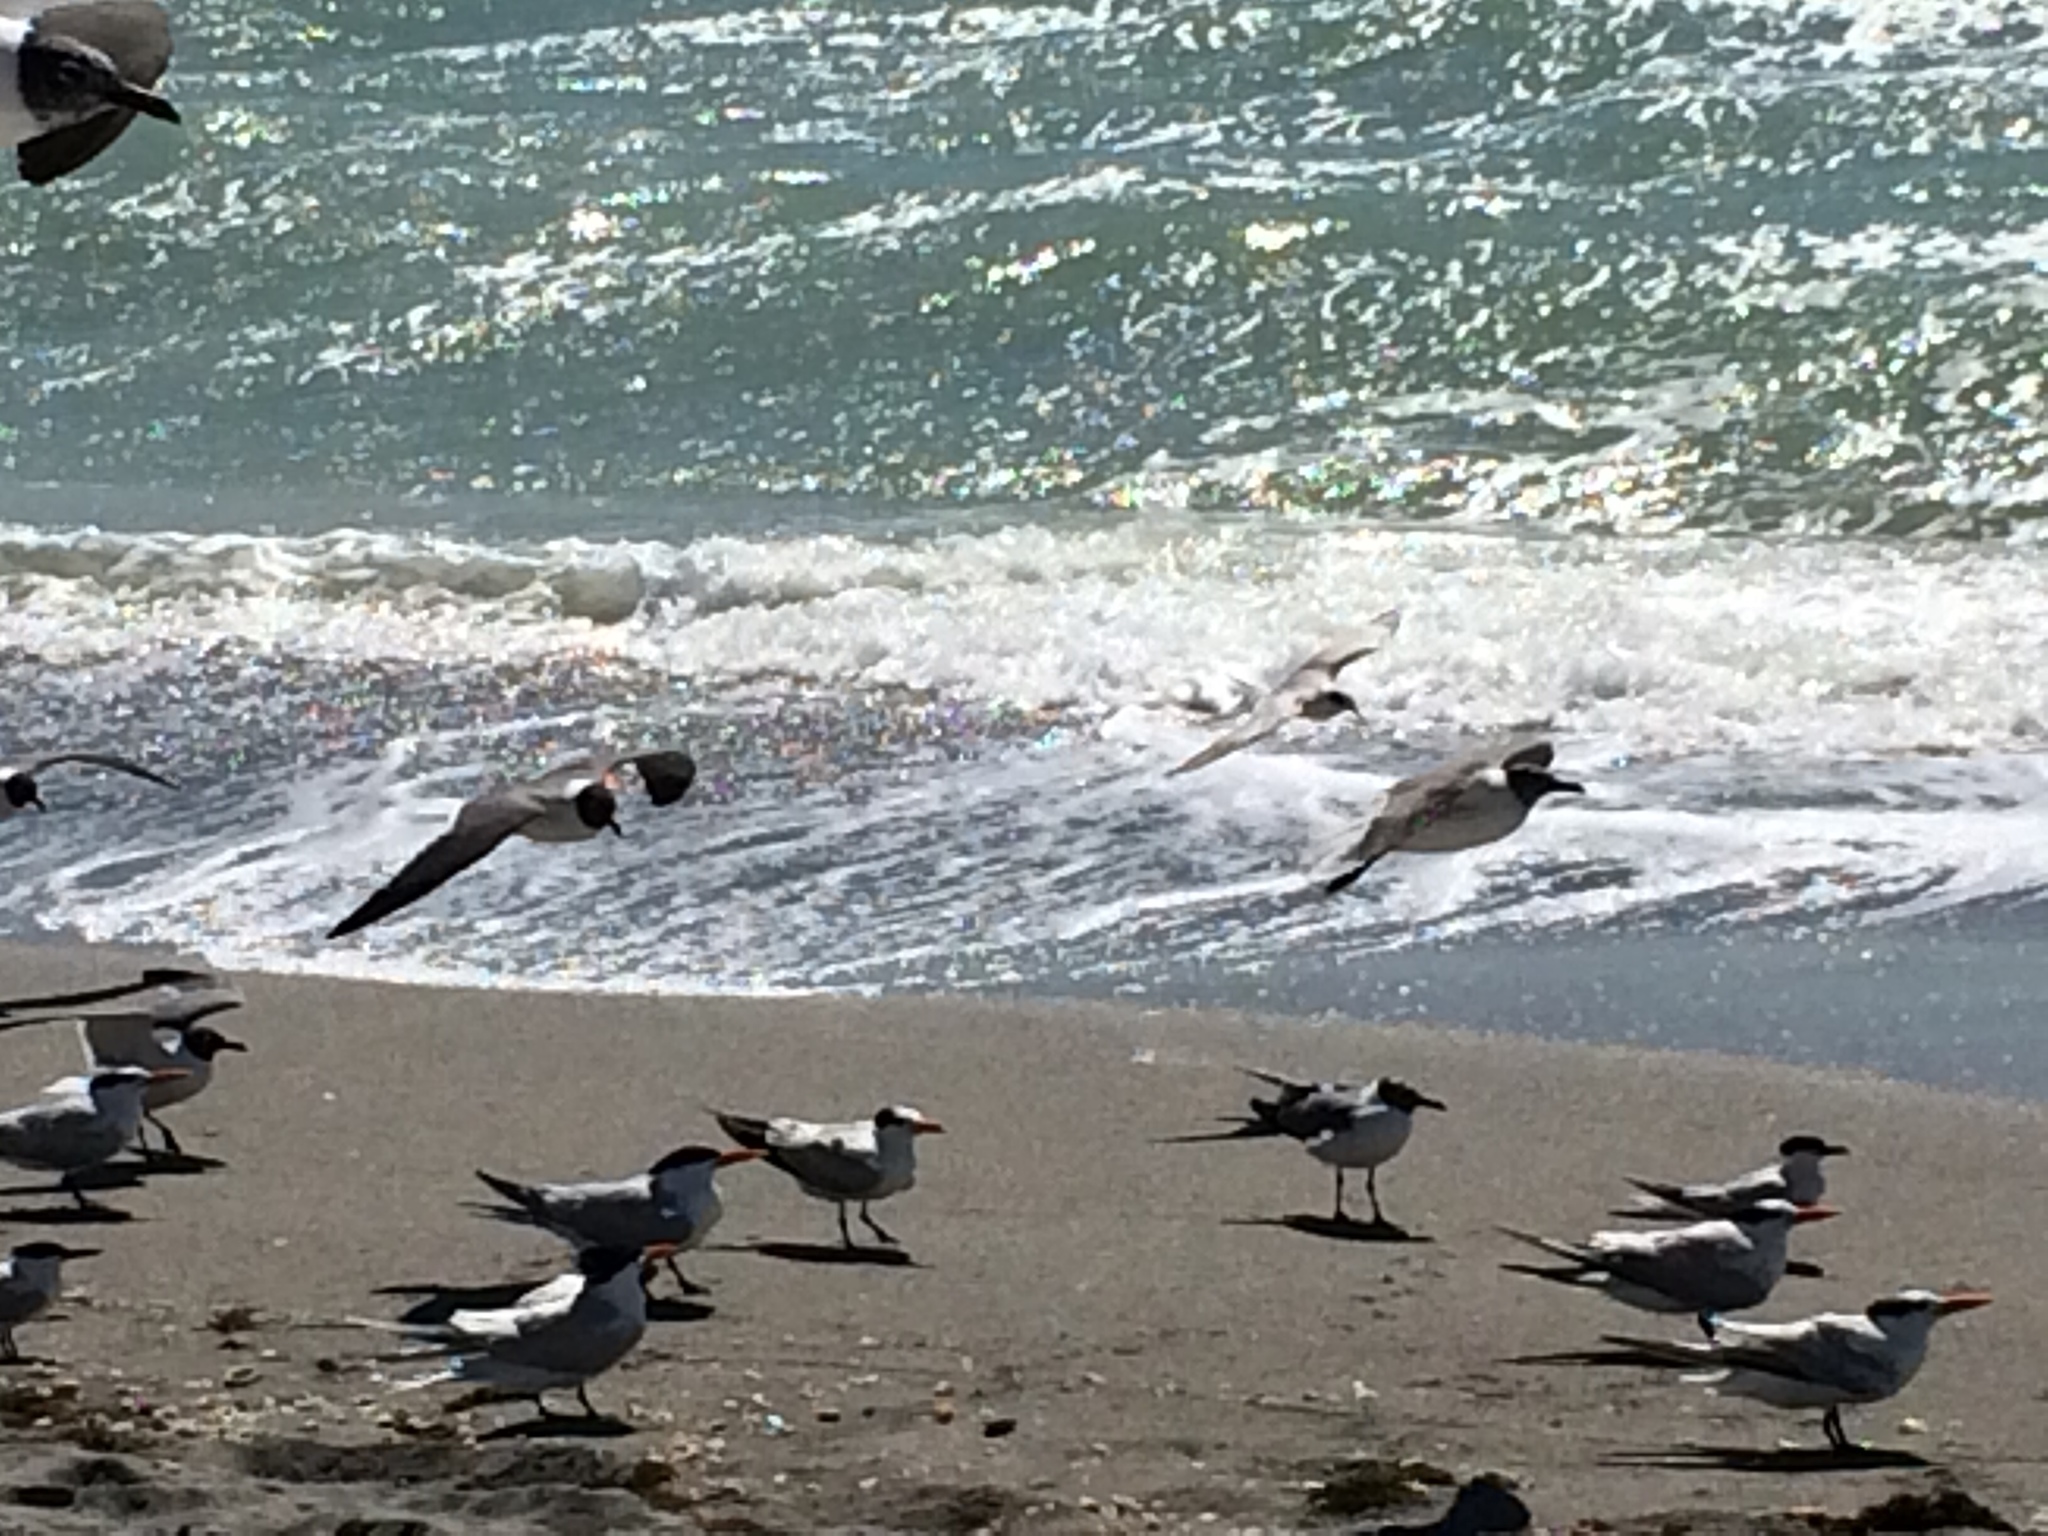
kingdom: Animalia
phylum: Chordata
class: Aves
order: Charadriiformes
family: Laridae
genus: Leucophaeus
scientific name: Leucophaeus atricilla
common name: Laughing gull
